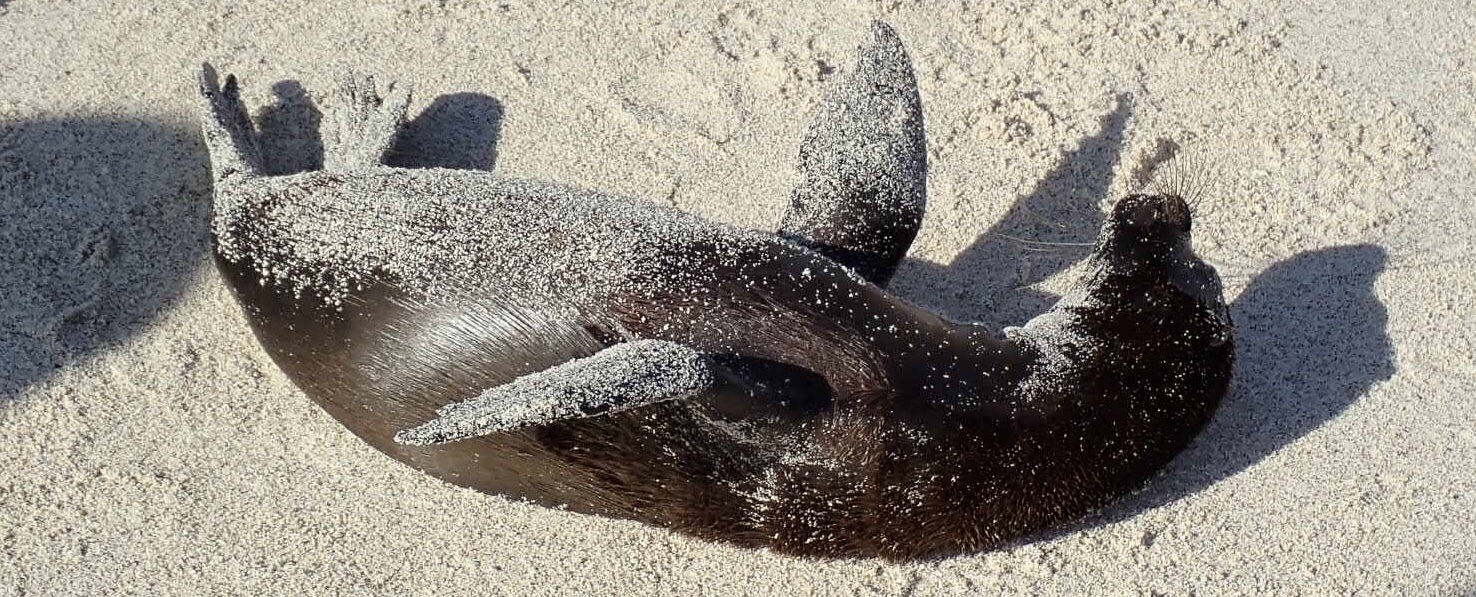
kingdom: Animalia
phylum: Chordata
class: Mammalia
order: Carnivora
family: Otariidae
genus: Zalophus
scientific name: Zalophus wollebaeki
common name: Galapagos sea lion
